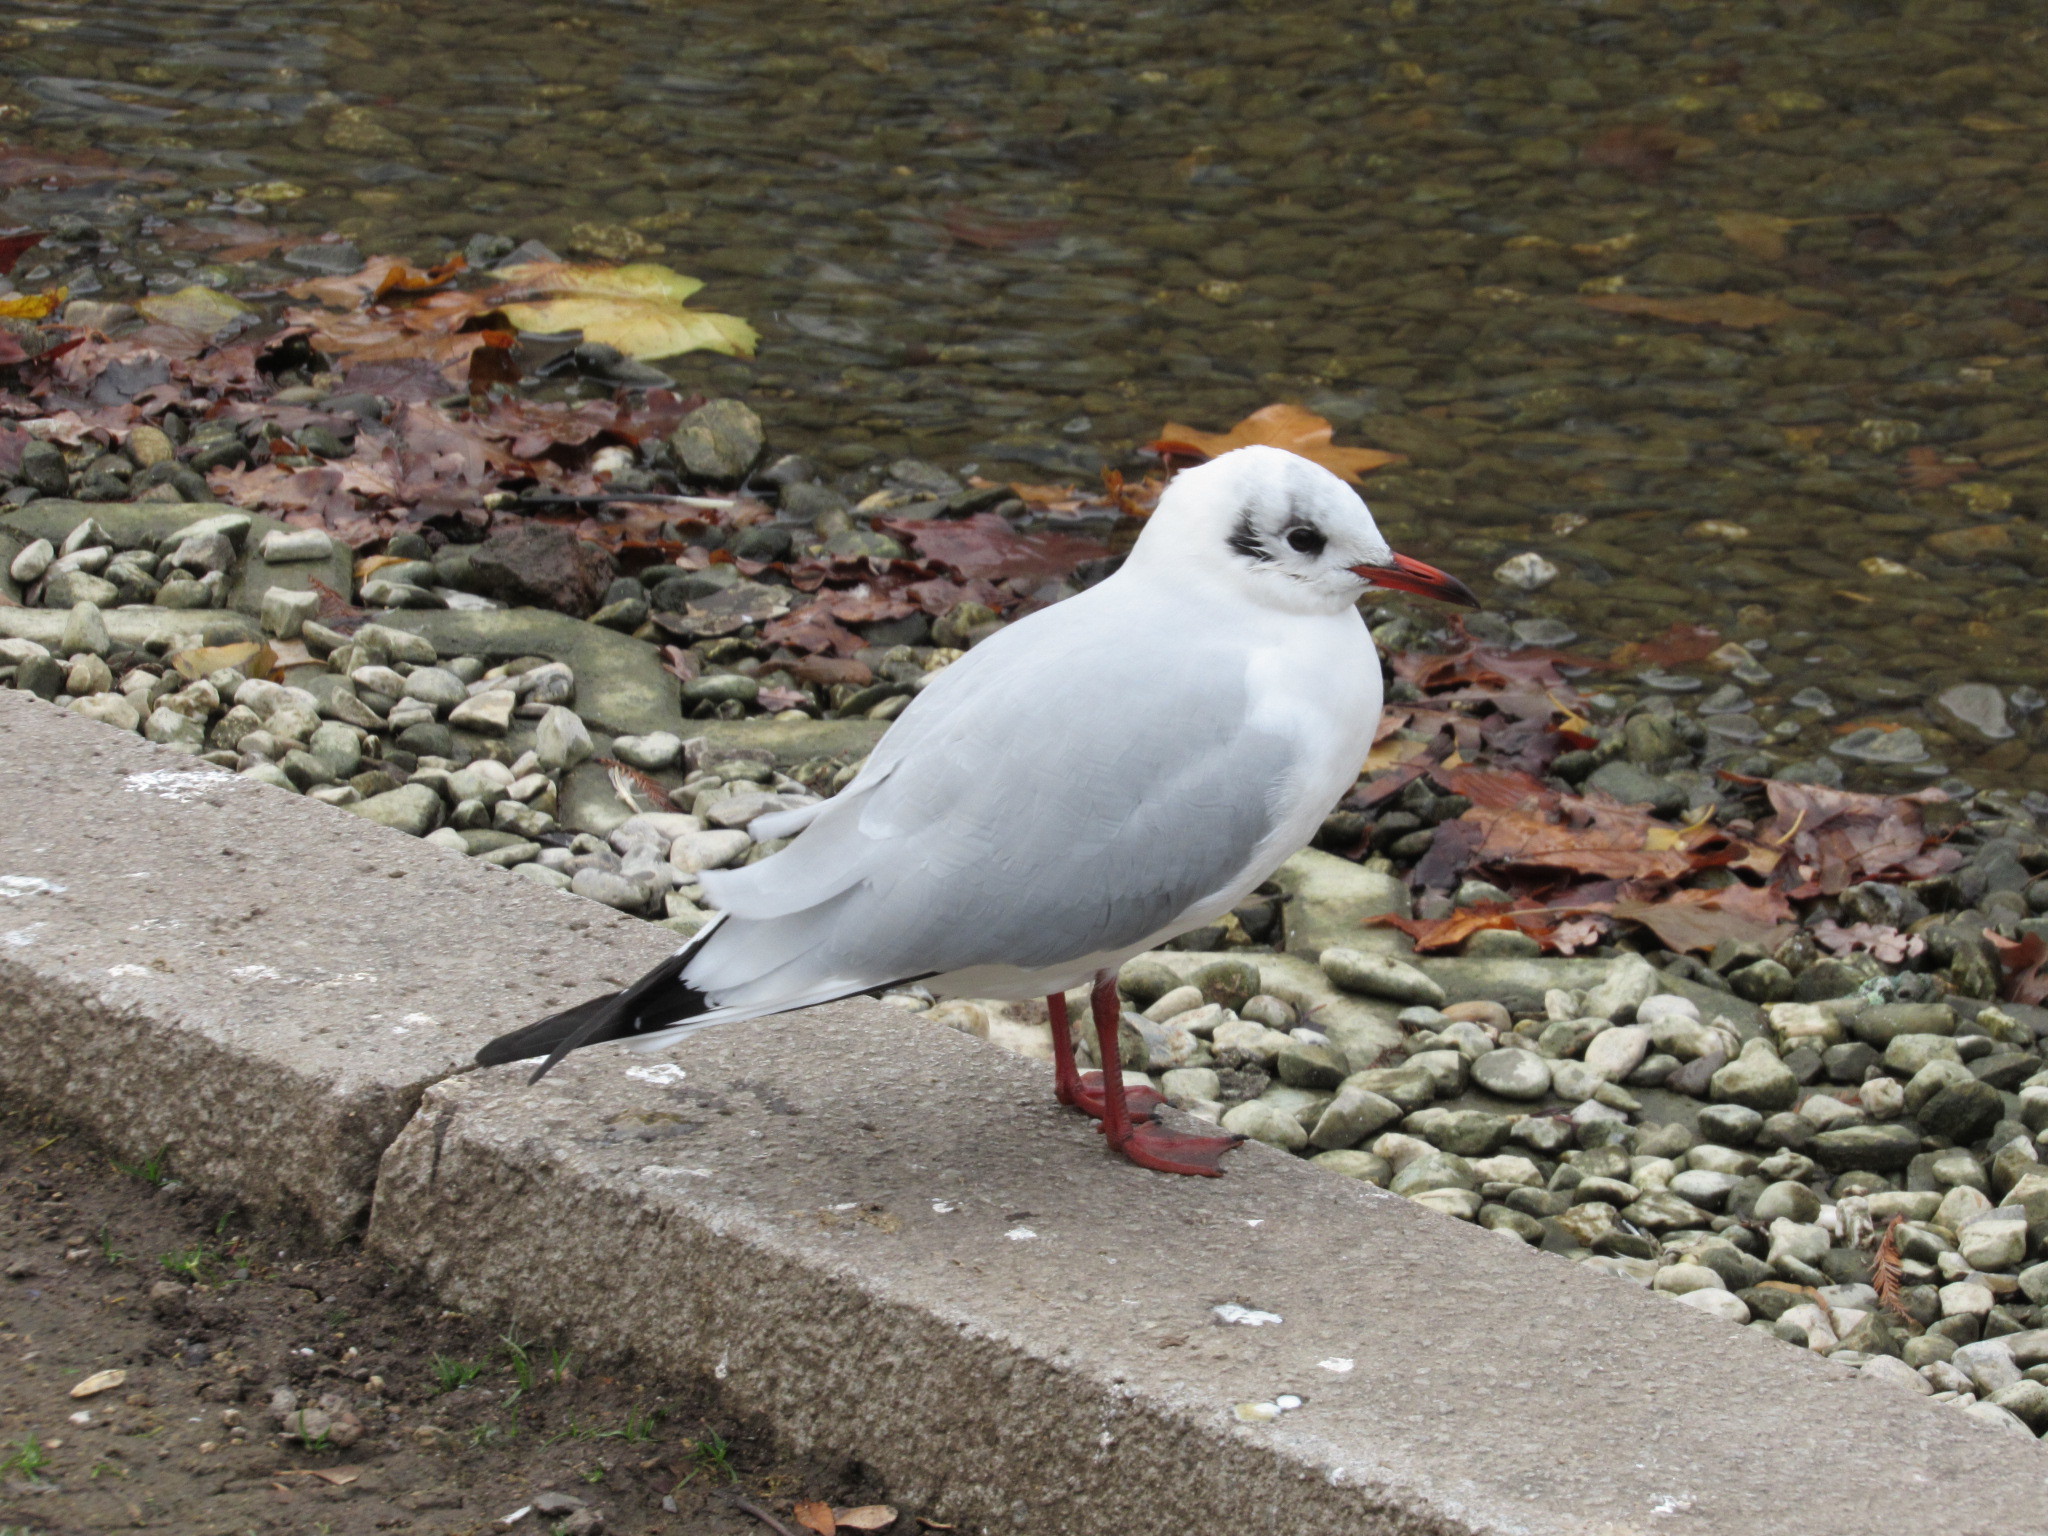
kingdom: Animalia
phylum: Chordata
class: Aves
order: Charadriiformes
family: Laridae
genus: Chroicocephalus
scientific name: Chroicocephalus ridibundus
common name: Black-headed gull
